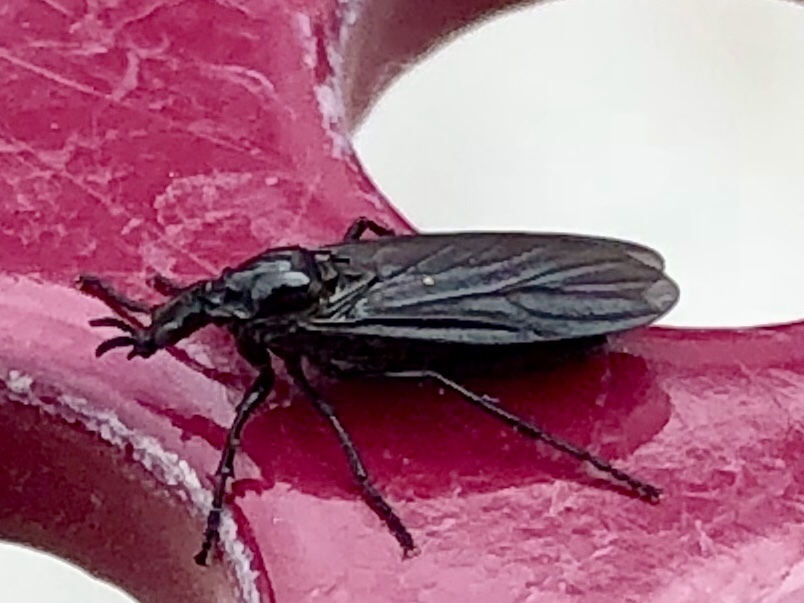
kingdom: Animalia
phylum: Arthropoda
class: Insecta
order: Diptera
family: Bibionidae
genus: Dilophus
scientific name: Dilophus orbatus
